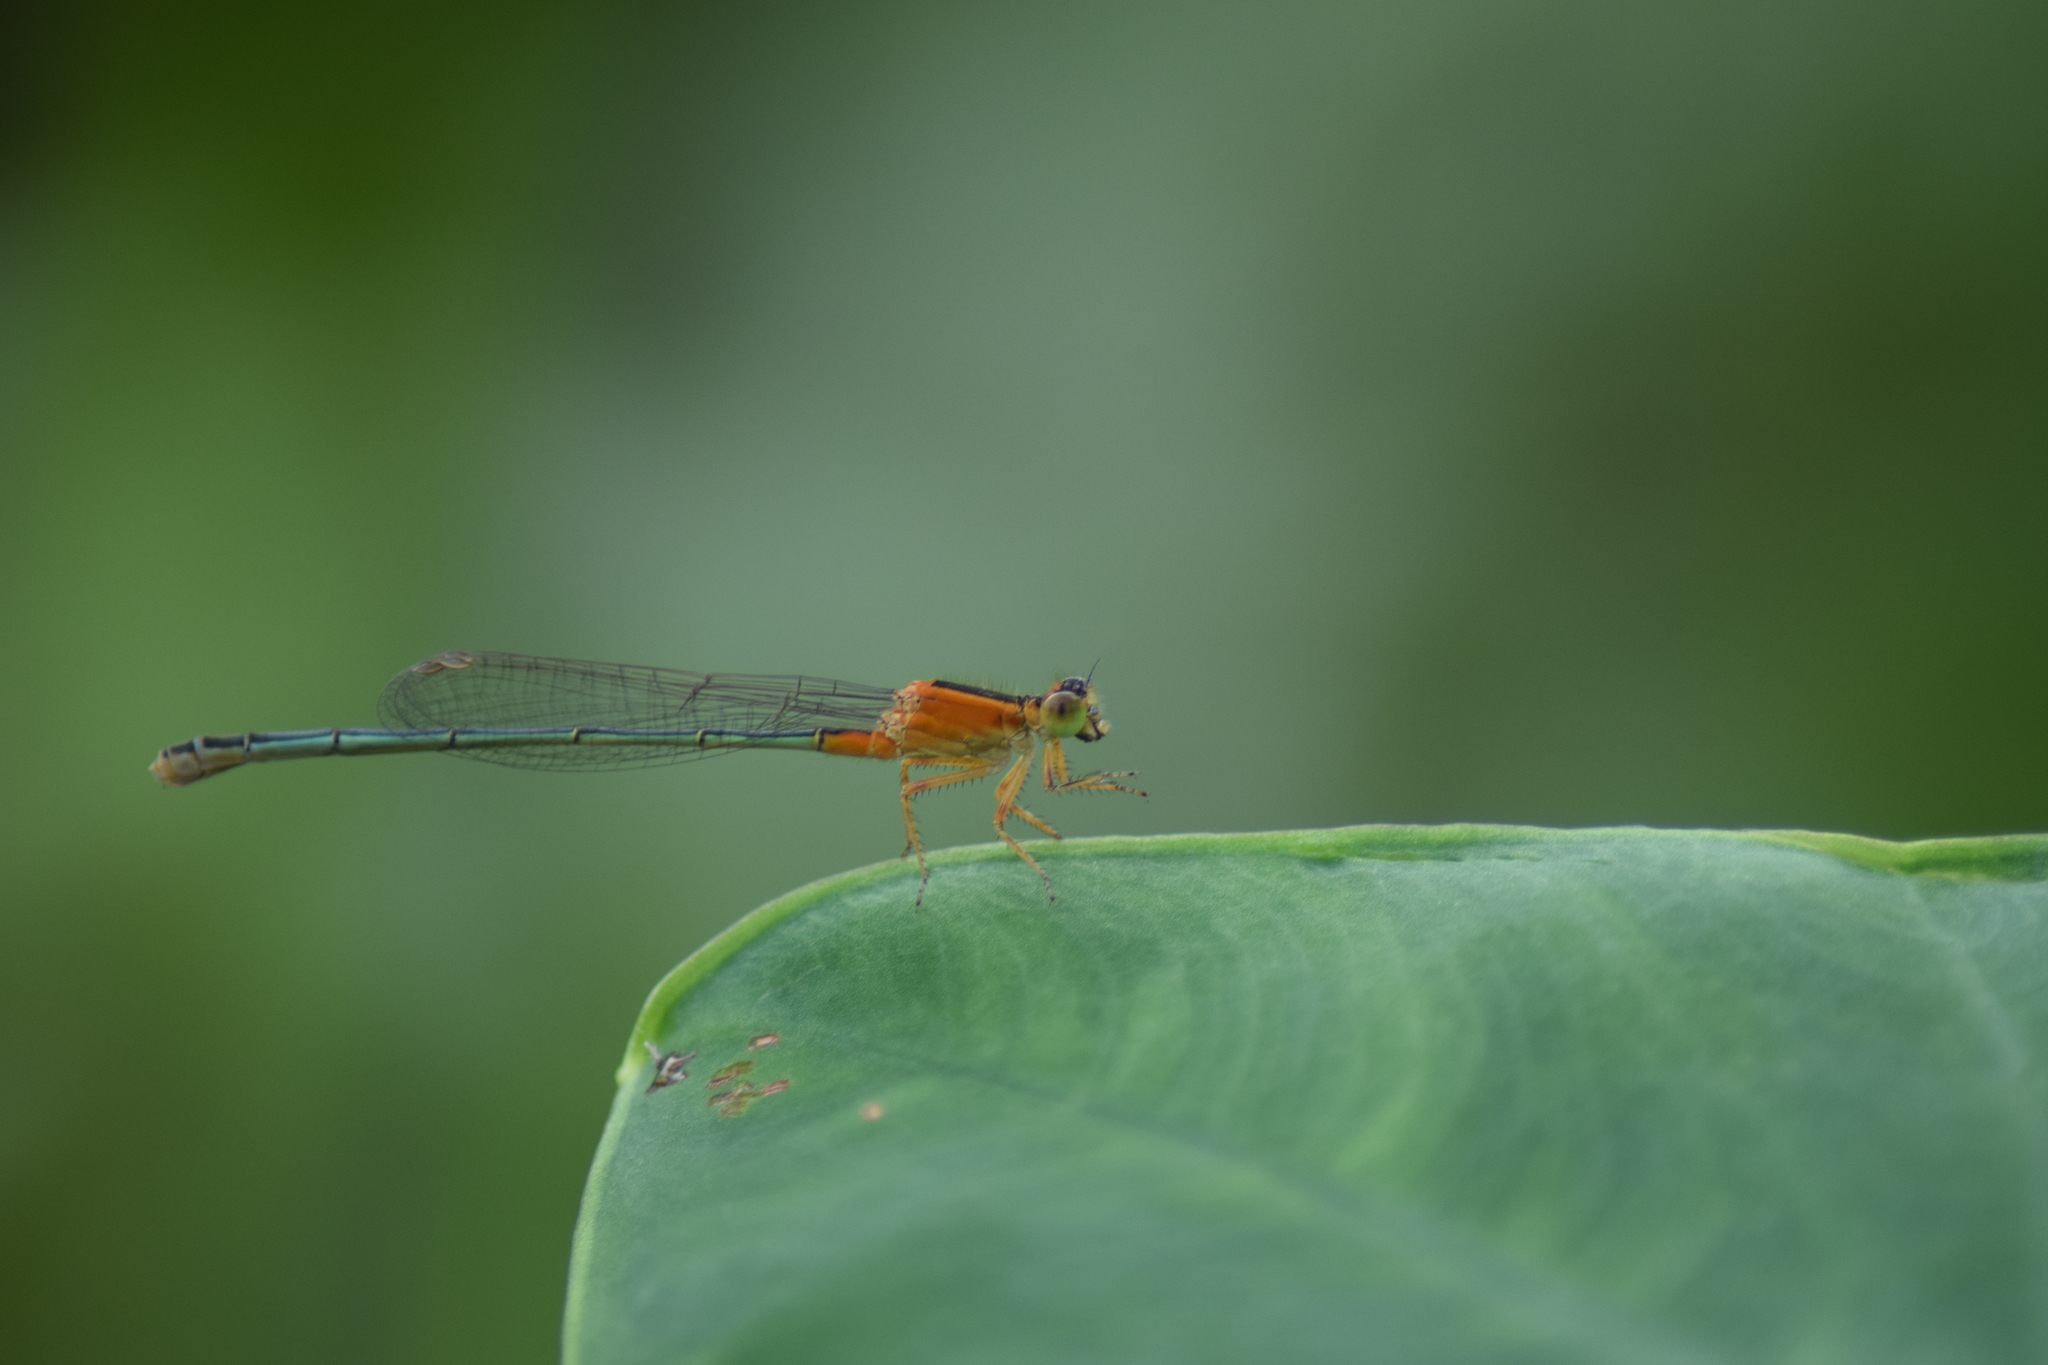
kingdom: Animalia
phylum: Arthropoda
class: Insecta
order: Odonata
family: Coenagrionidae
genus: Ischnura
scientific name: Ischnura senegalensis
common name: Tropical bluetail
